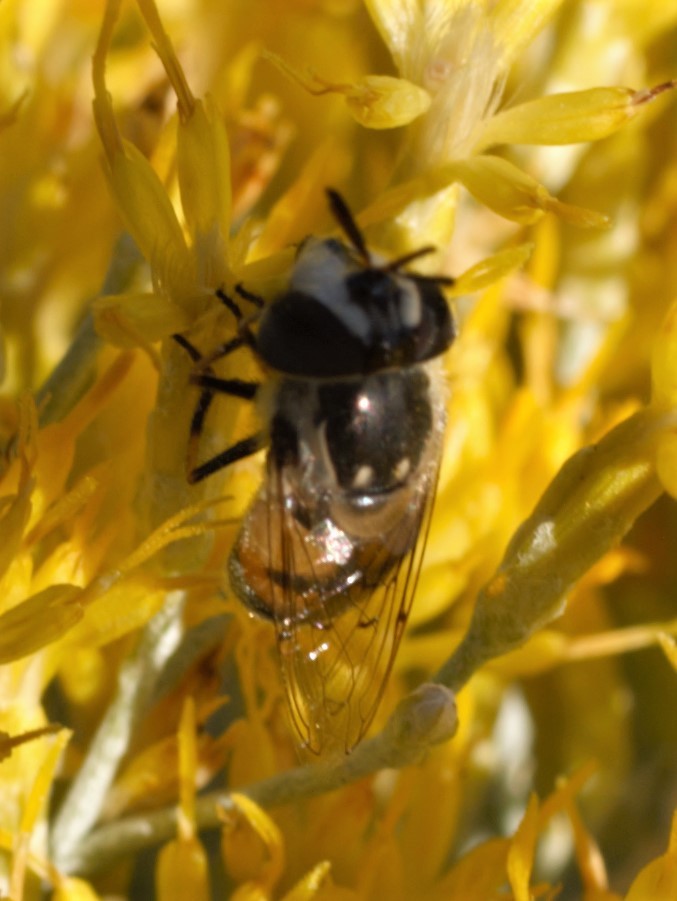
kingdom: Animalia
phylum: Arthropoda
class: Insecta
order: Diptera
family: Syrphidae
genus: Copestylum
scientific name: Copestylum lentum
